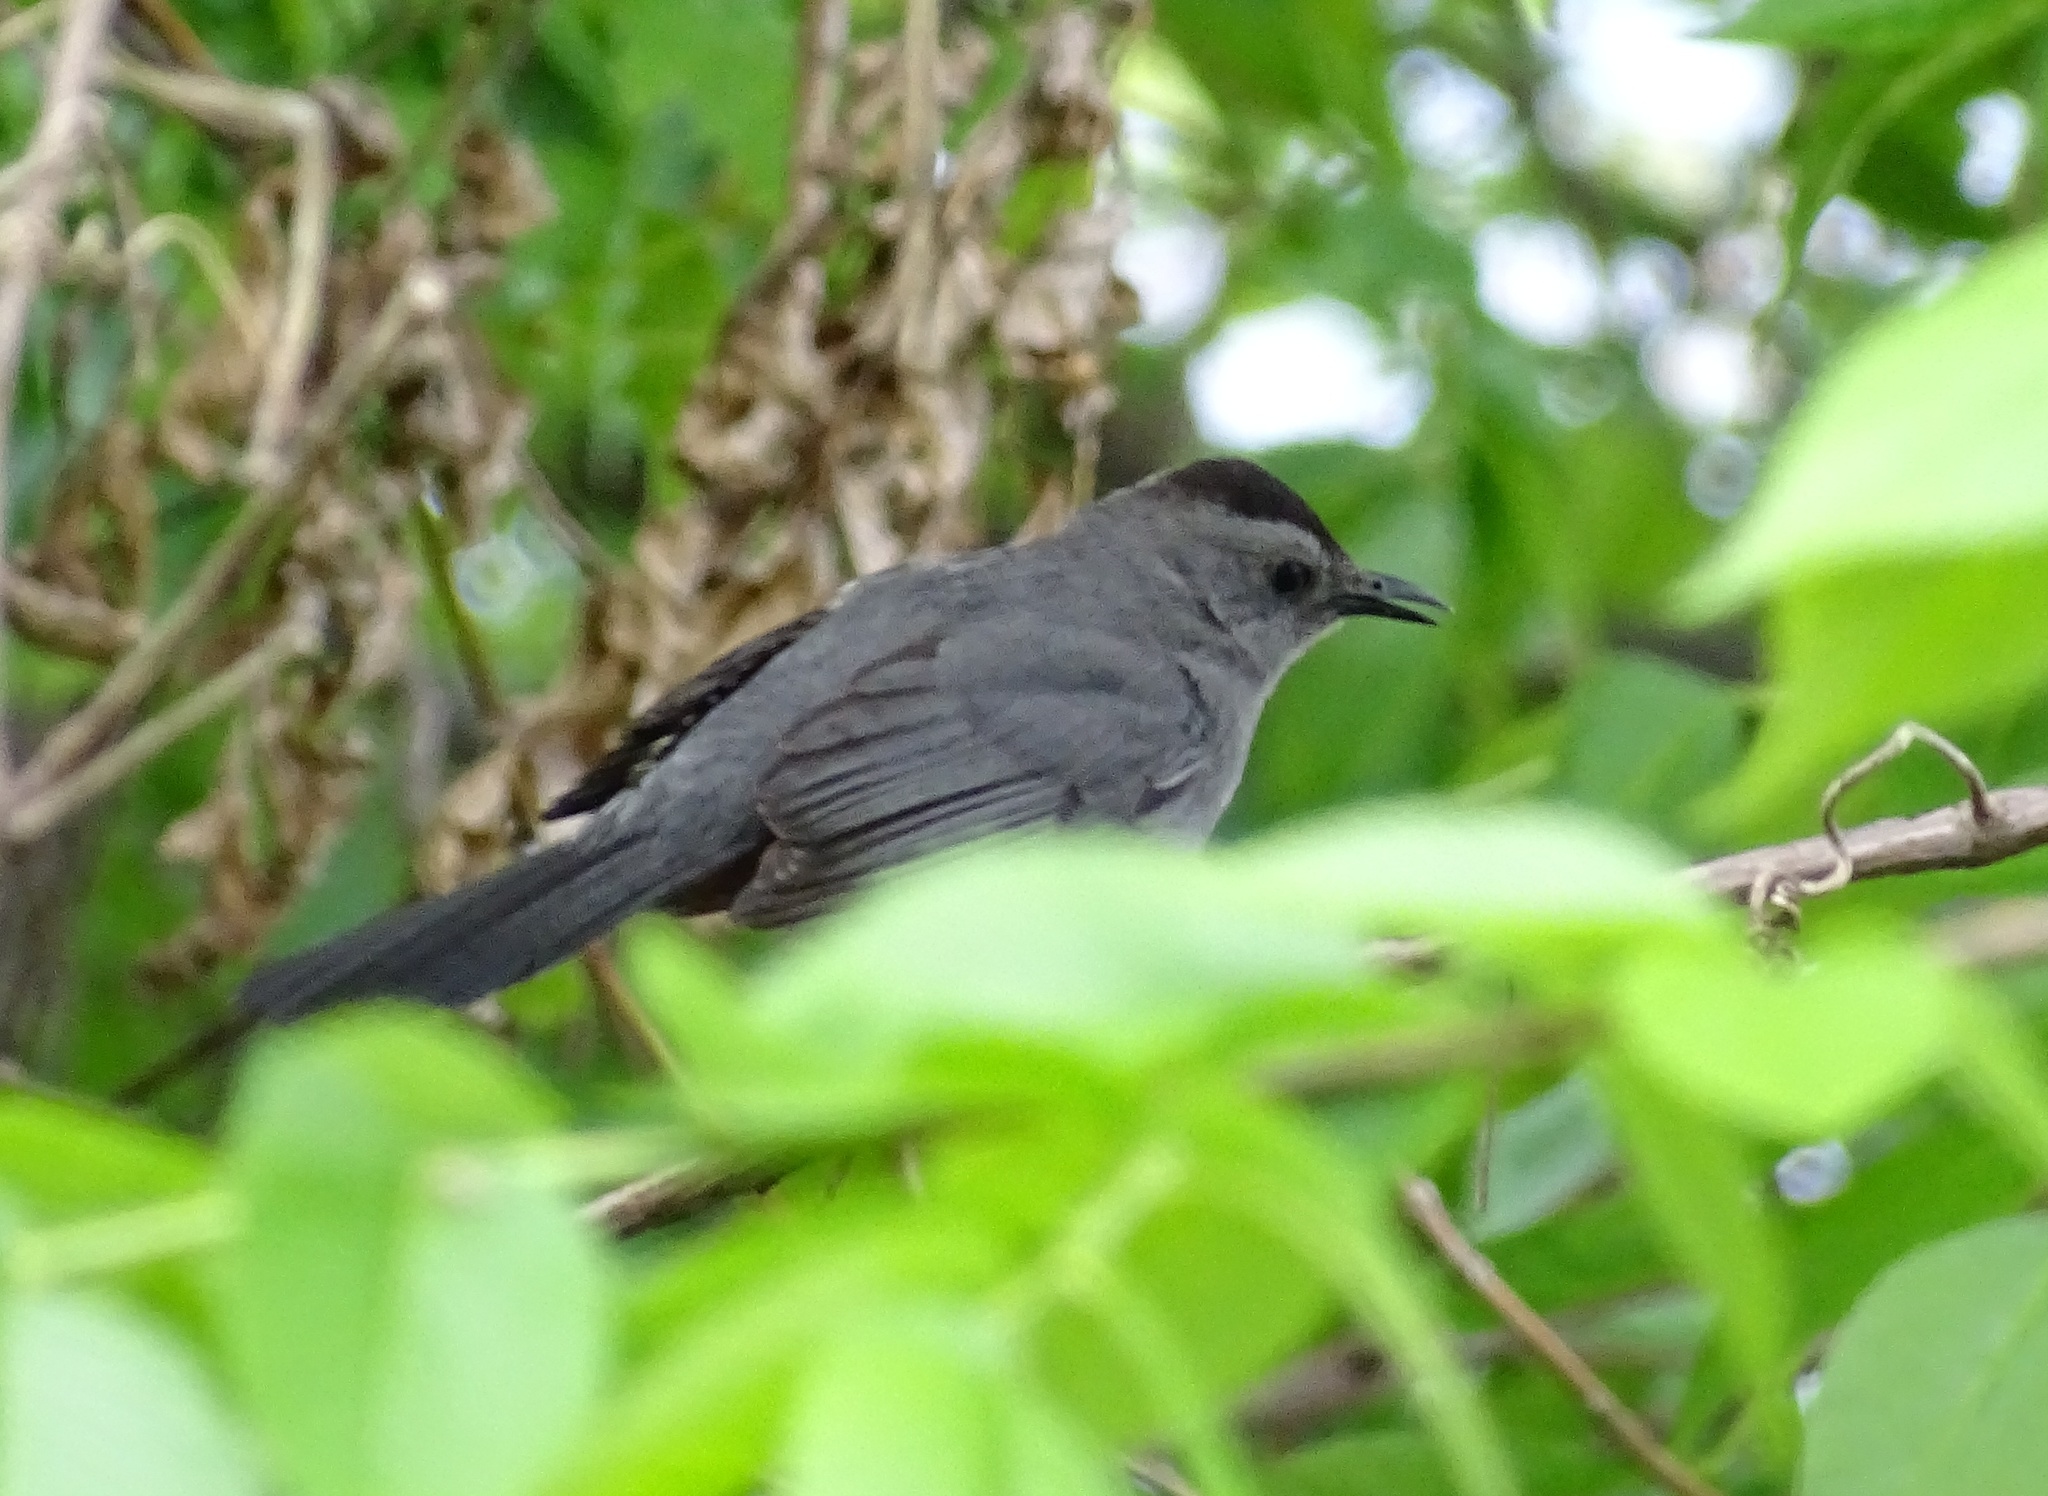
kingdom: Animalia
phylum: Chordata
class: Aves
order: Passeriformes
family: Mimidae
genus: Dumetella
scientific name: Dumetella carolinensis
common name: Gray catbird
